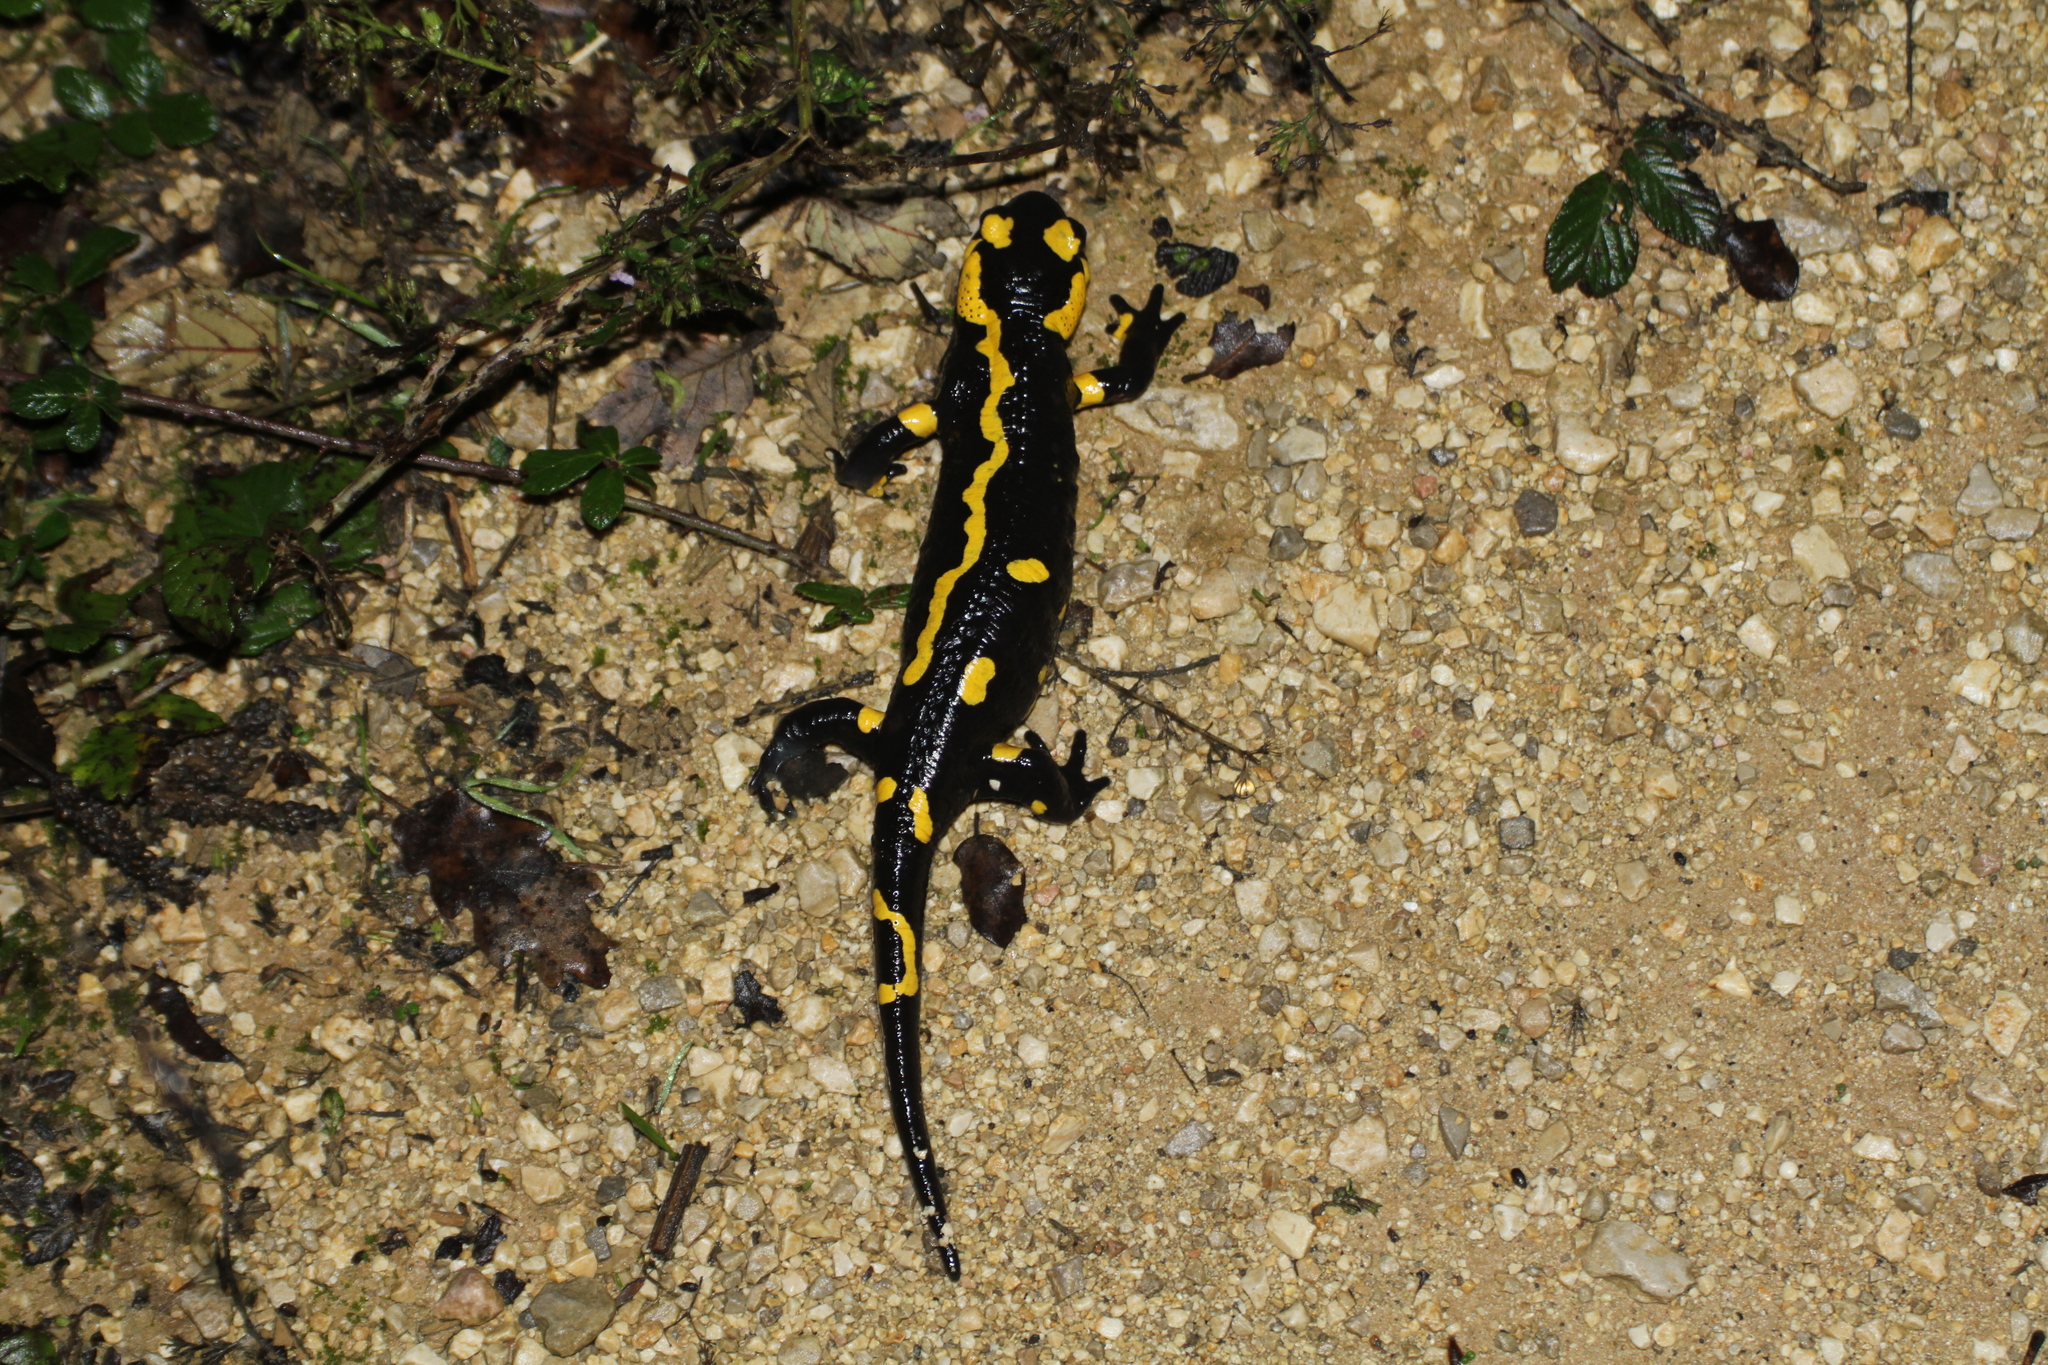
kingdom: Animalia
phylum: Chordata
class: Amphibia
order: Caudata
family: Salamandridae
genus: Salamandra
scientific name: Salamandra salamandra
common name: Fire salamander
